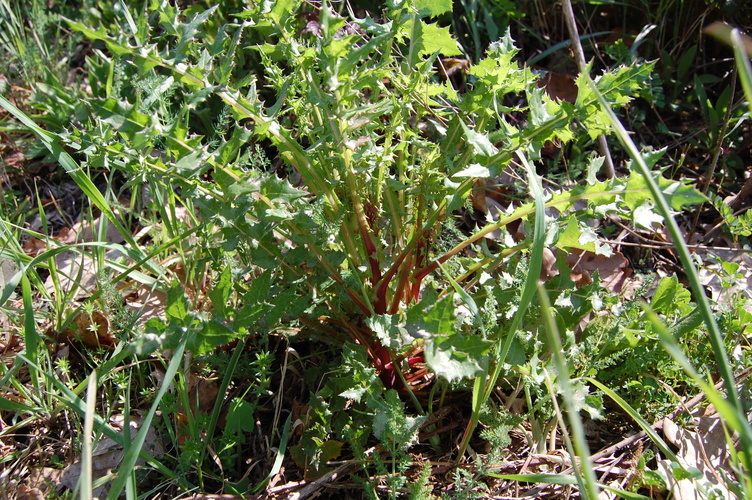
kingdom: Plantae
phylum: Tracheophyta
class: Magnoliopsida
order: Asterales
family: Asteraceae
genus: Sonchus
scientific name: Sonchus asper
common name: Prickly sow-thistle
